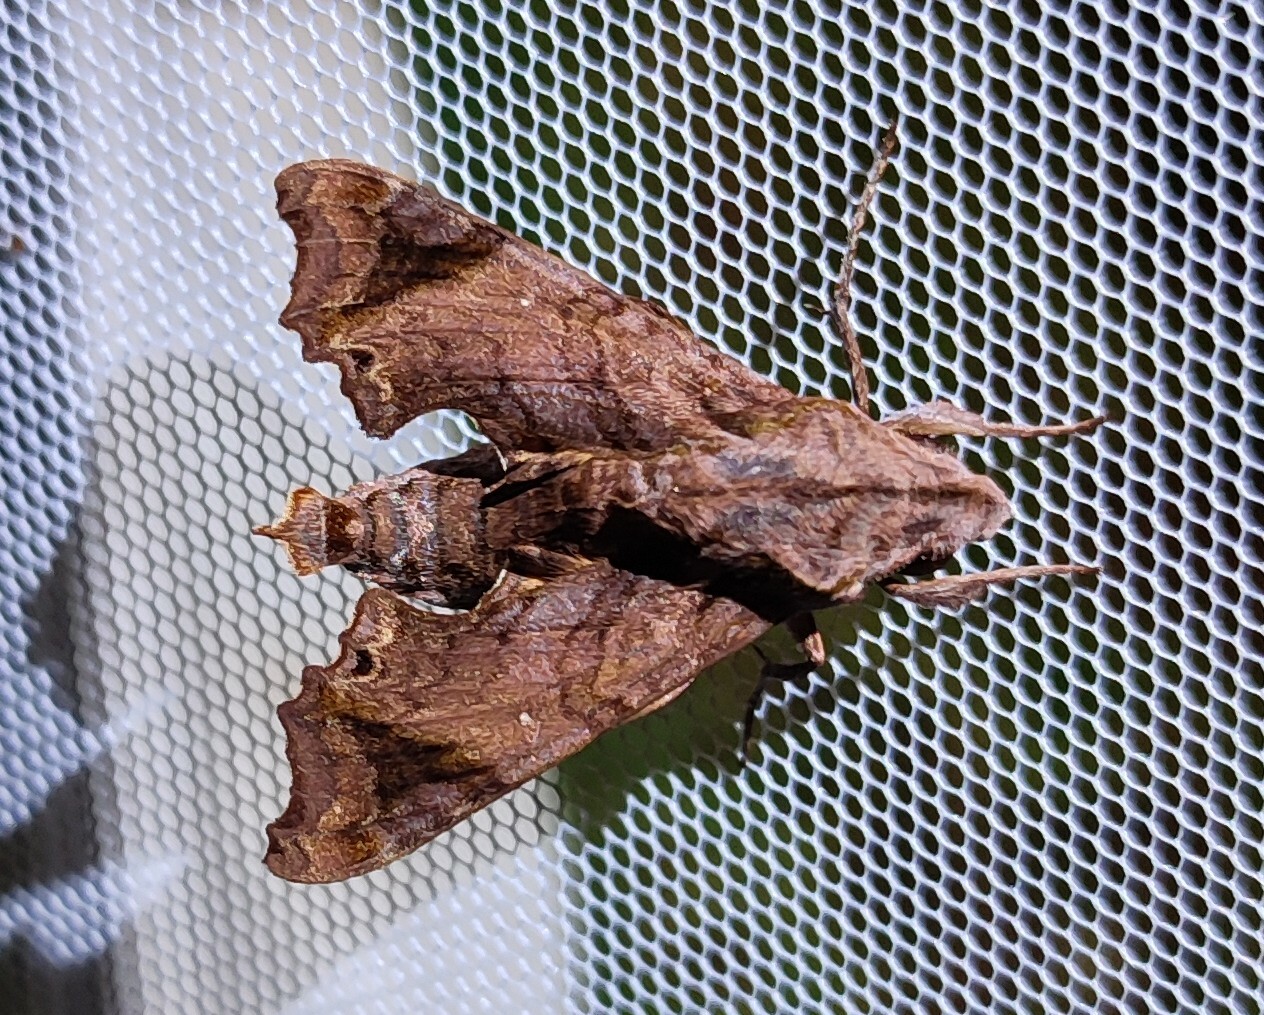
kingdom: Animalia
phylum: Arthropoda
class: Insecta
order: Lepidoptera
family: Sphingidae
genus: Temnora
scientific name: Temnora pseudopylas
